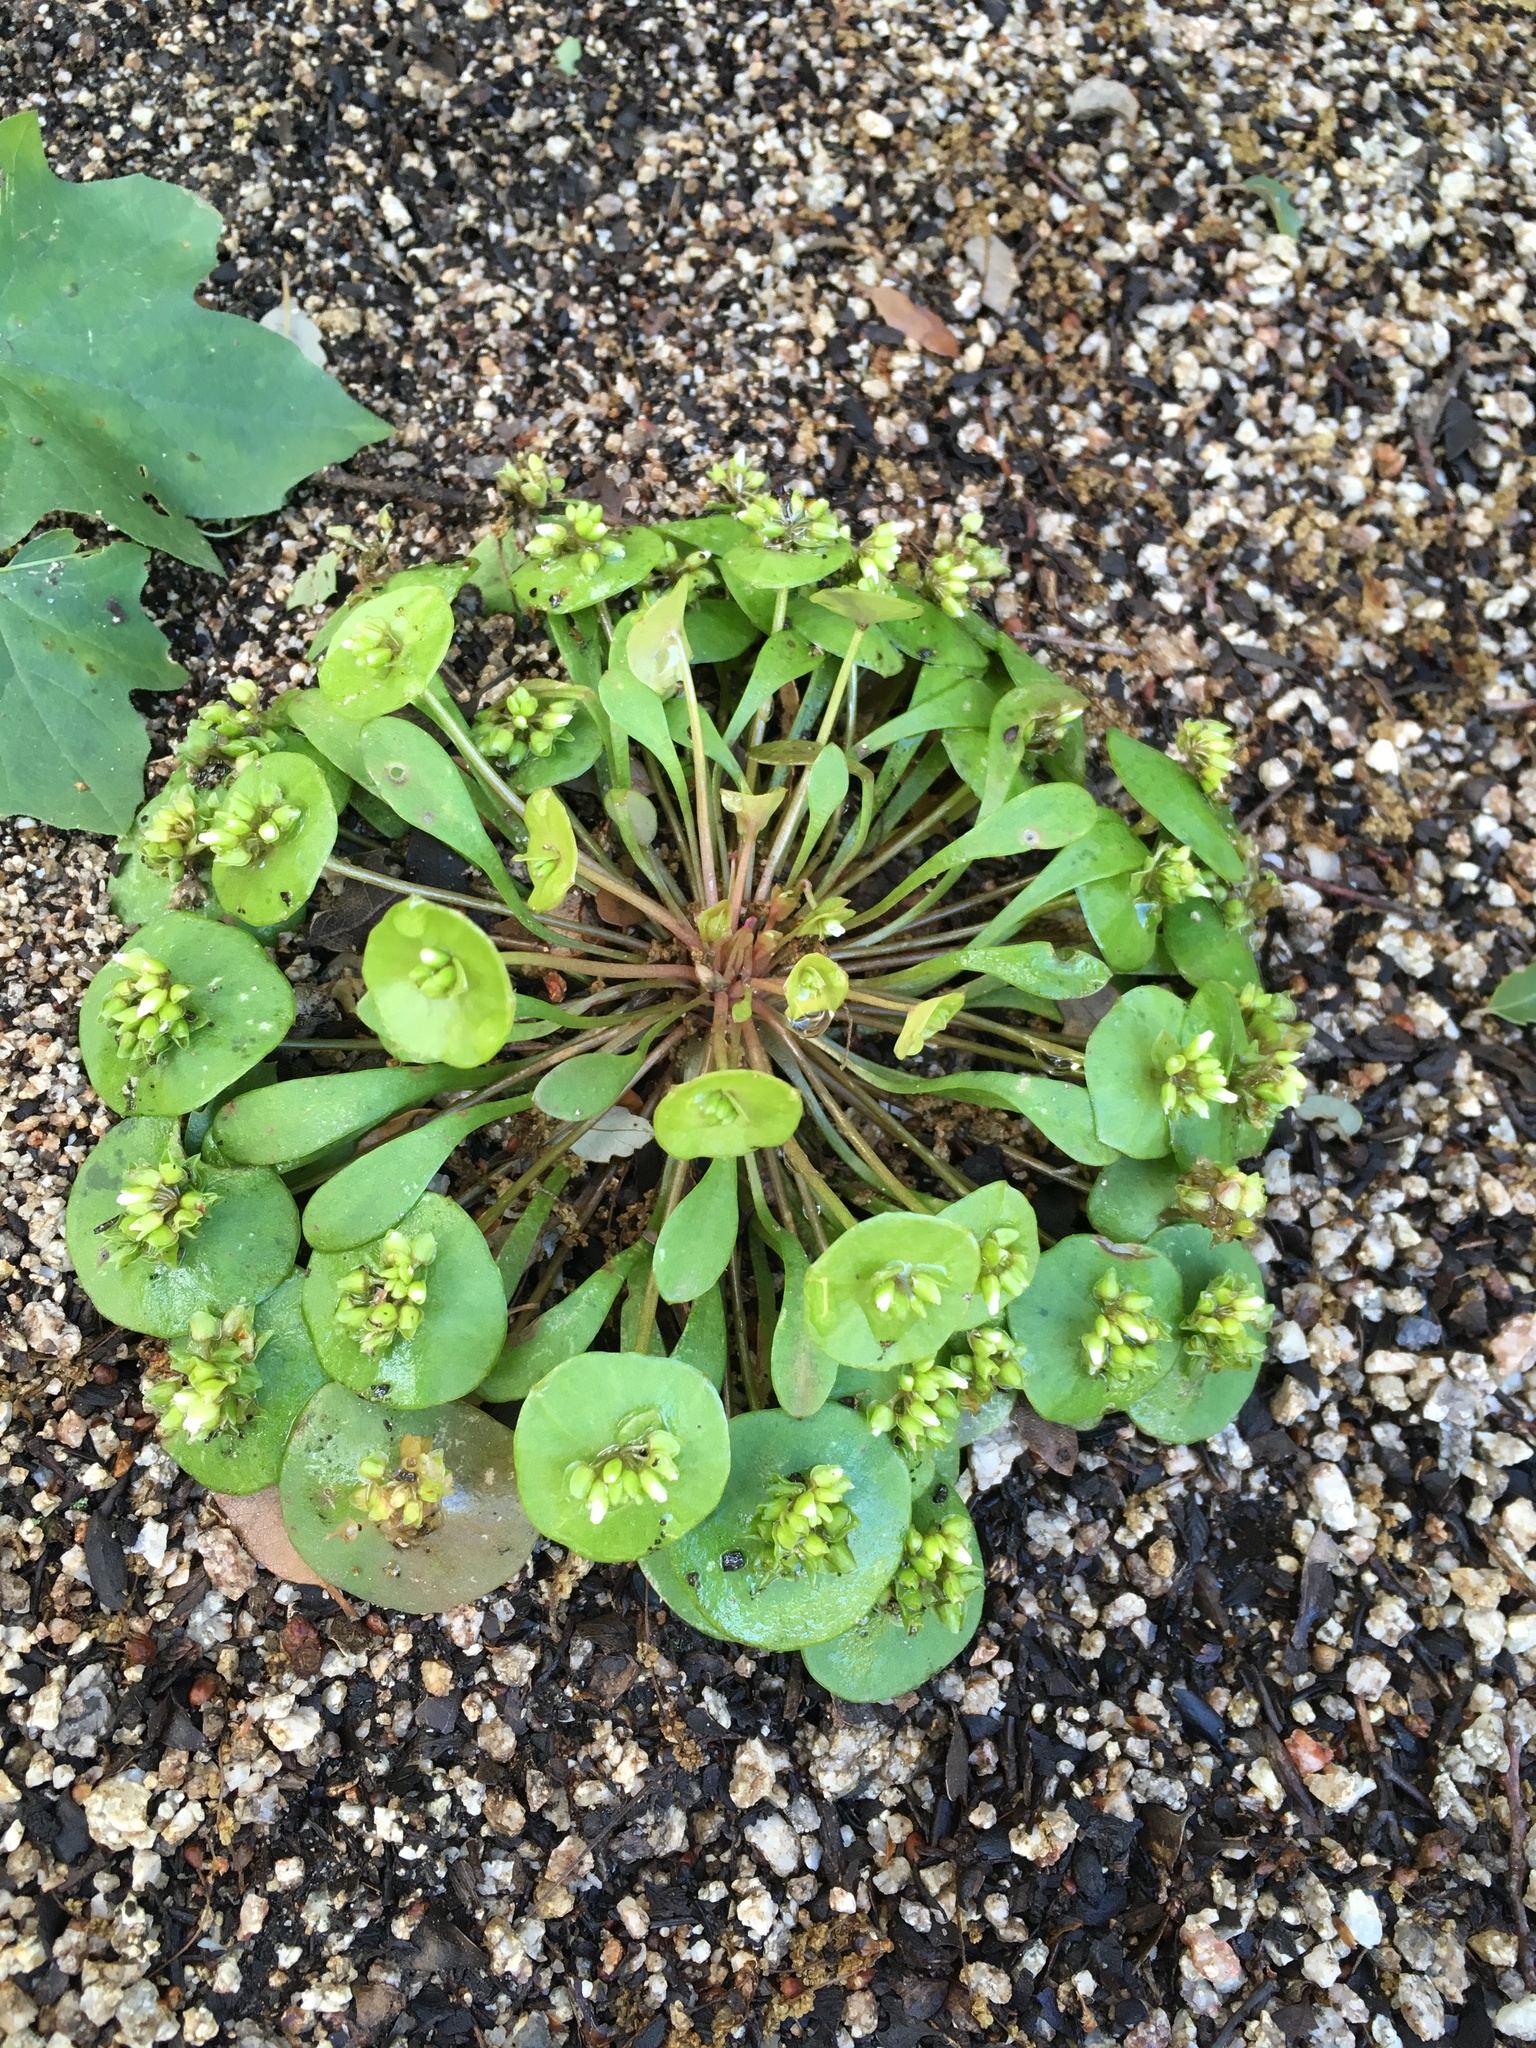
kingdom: Plantae
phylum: Tracheophyta
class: Magnoliopsida
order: Caryophyllales
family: Montiaceae
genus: Claytonia
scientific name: Claytonia parviflora
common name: Indian-lettuce
